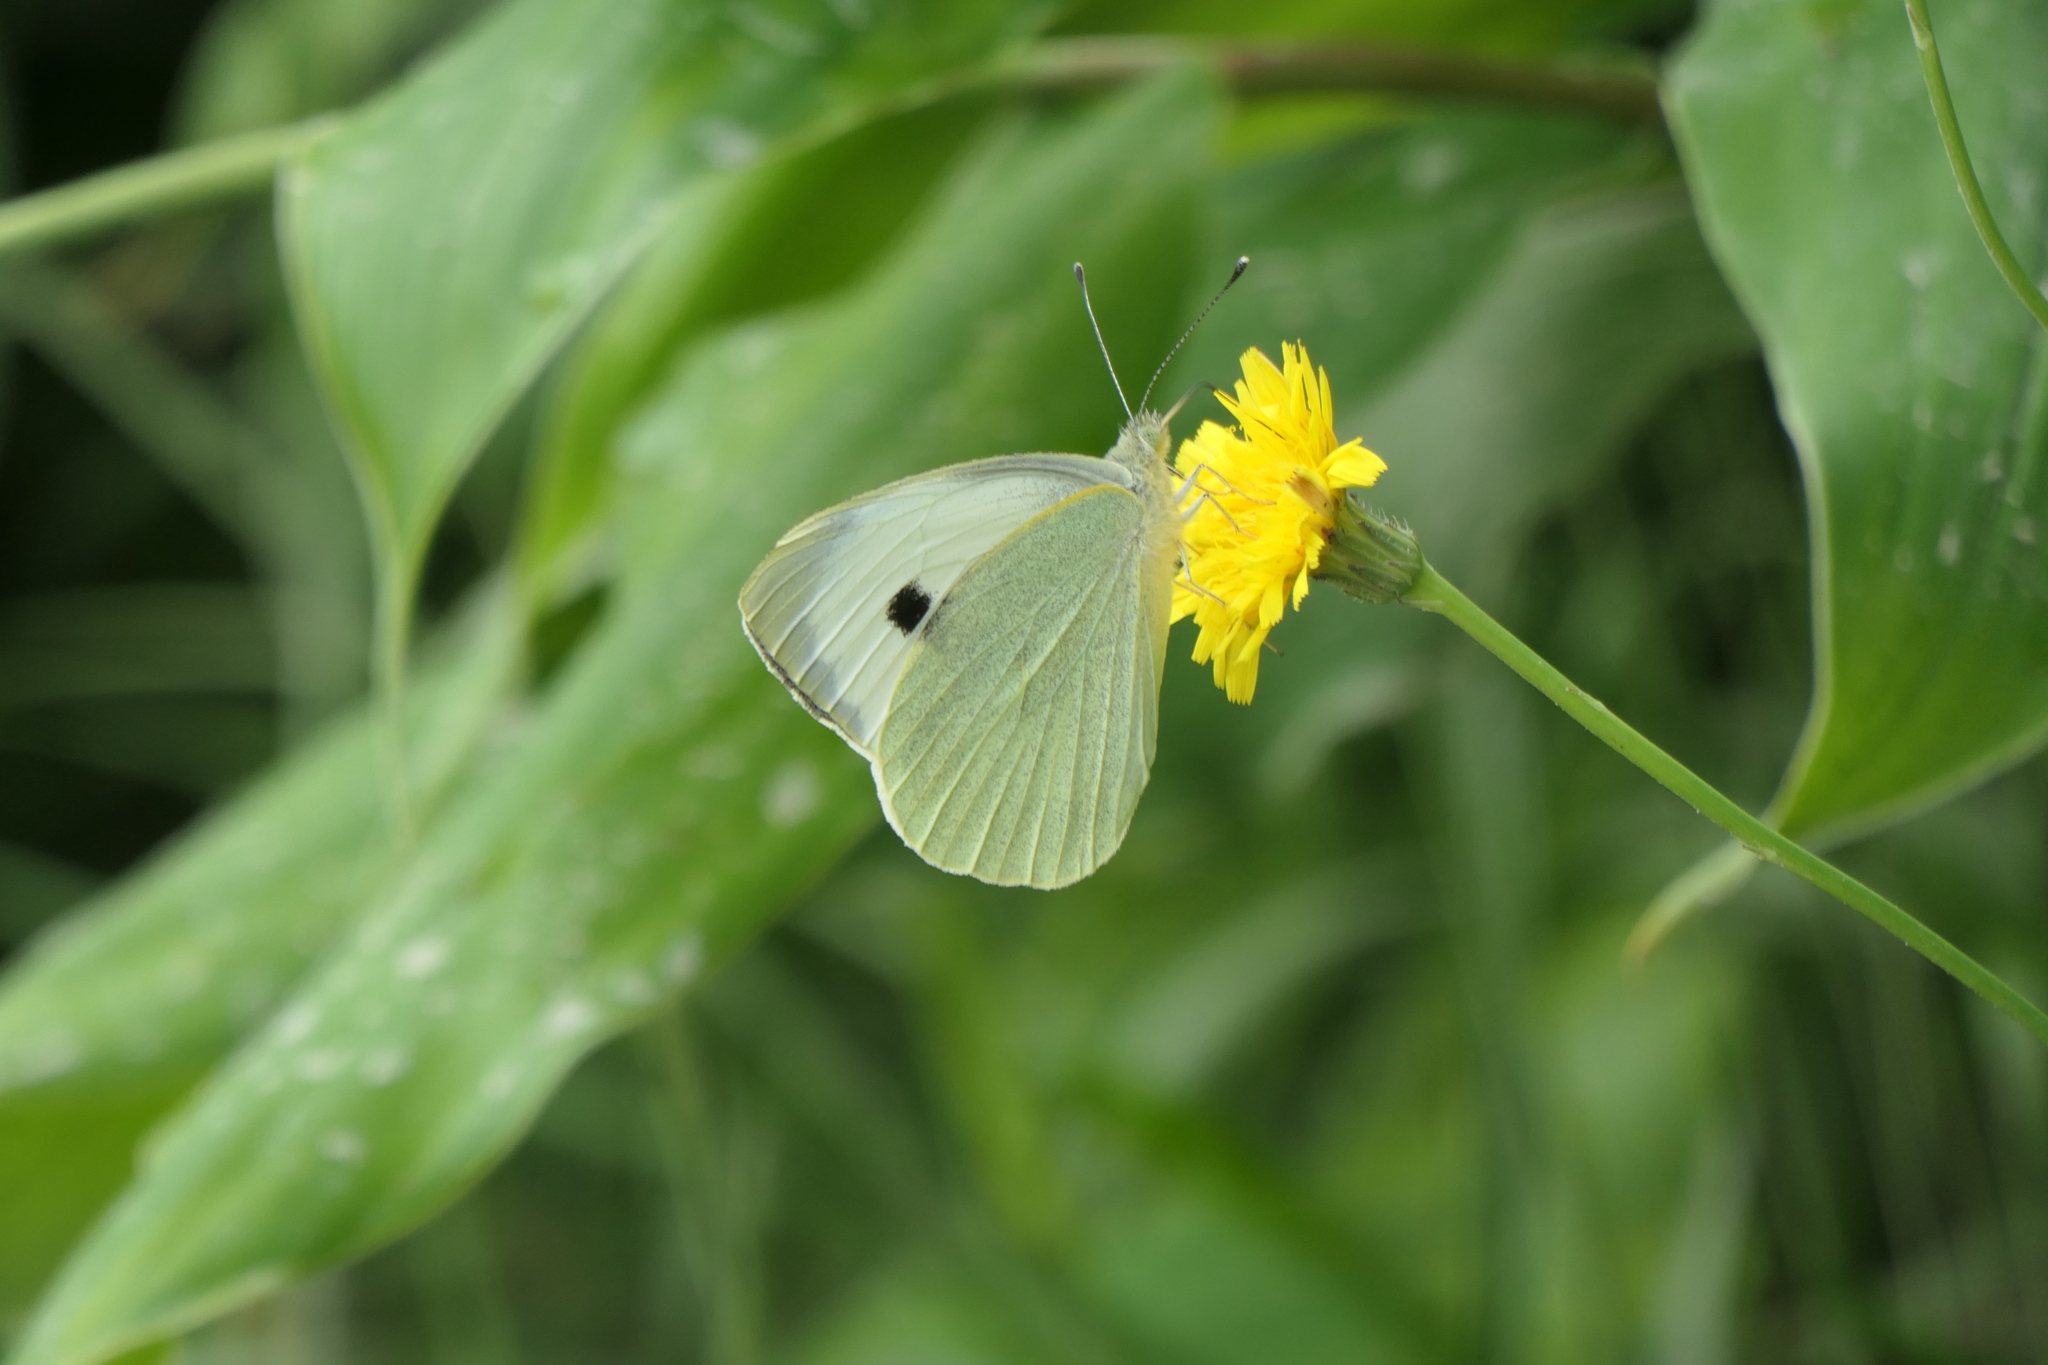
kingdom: Animalia
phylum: Arthropoda
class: Insecta
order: Lepidoptera
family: Pieridae
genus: Pieris
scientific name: Pieris brassicae
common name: Large white
